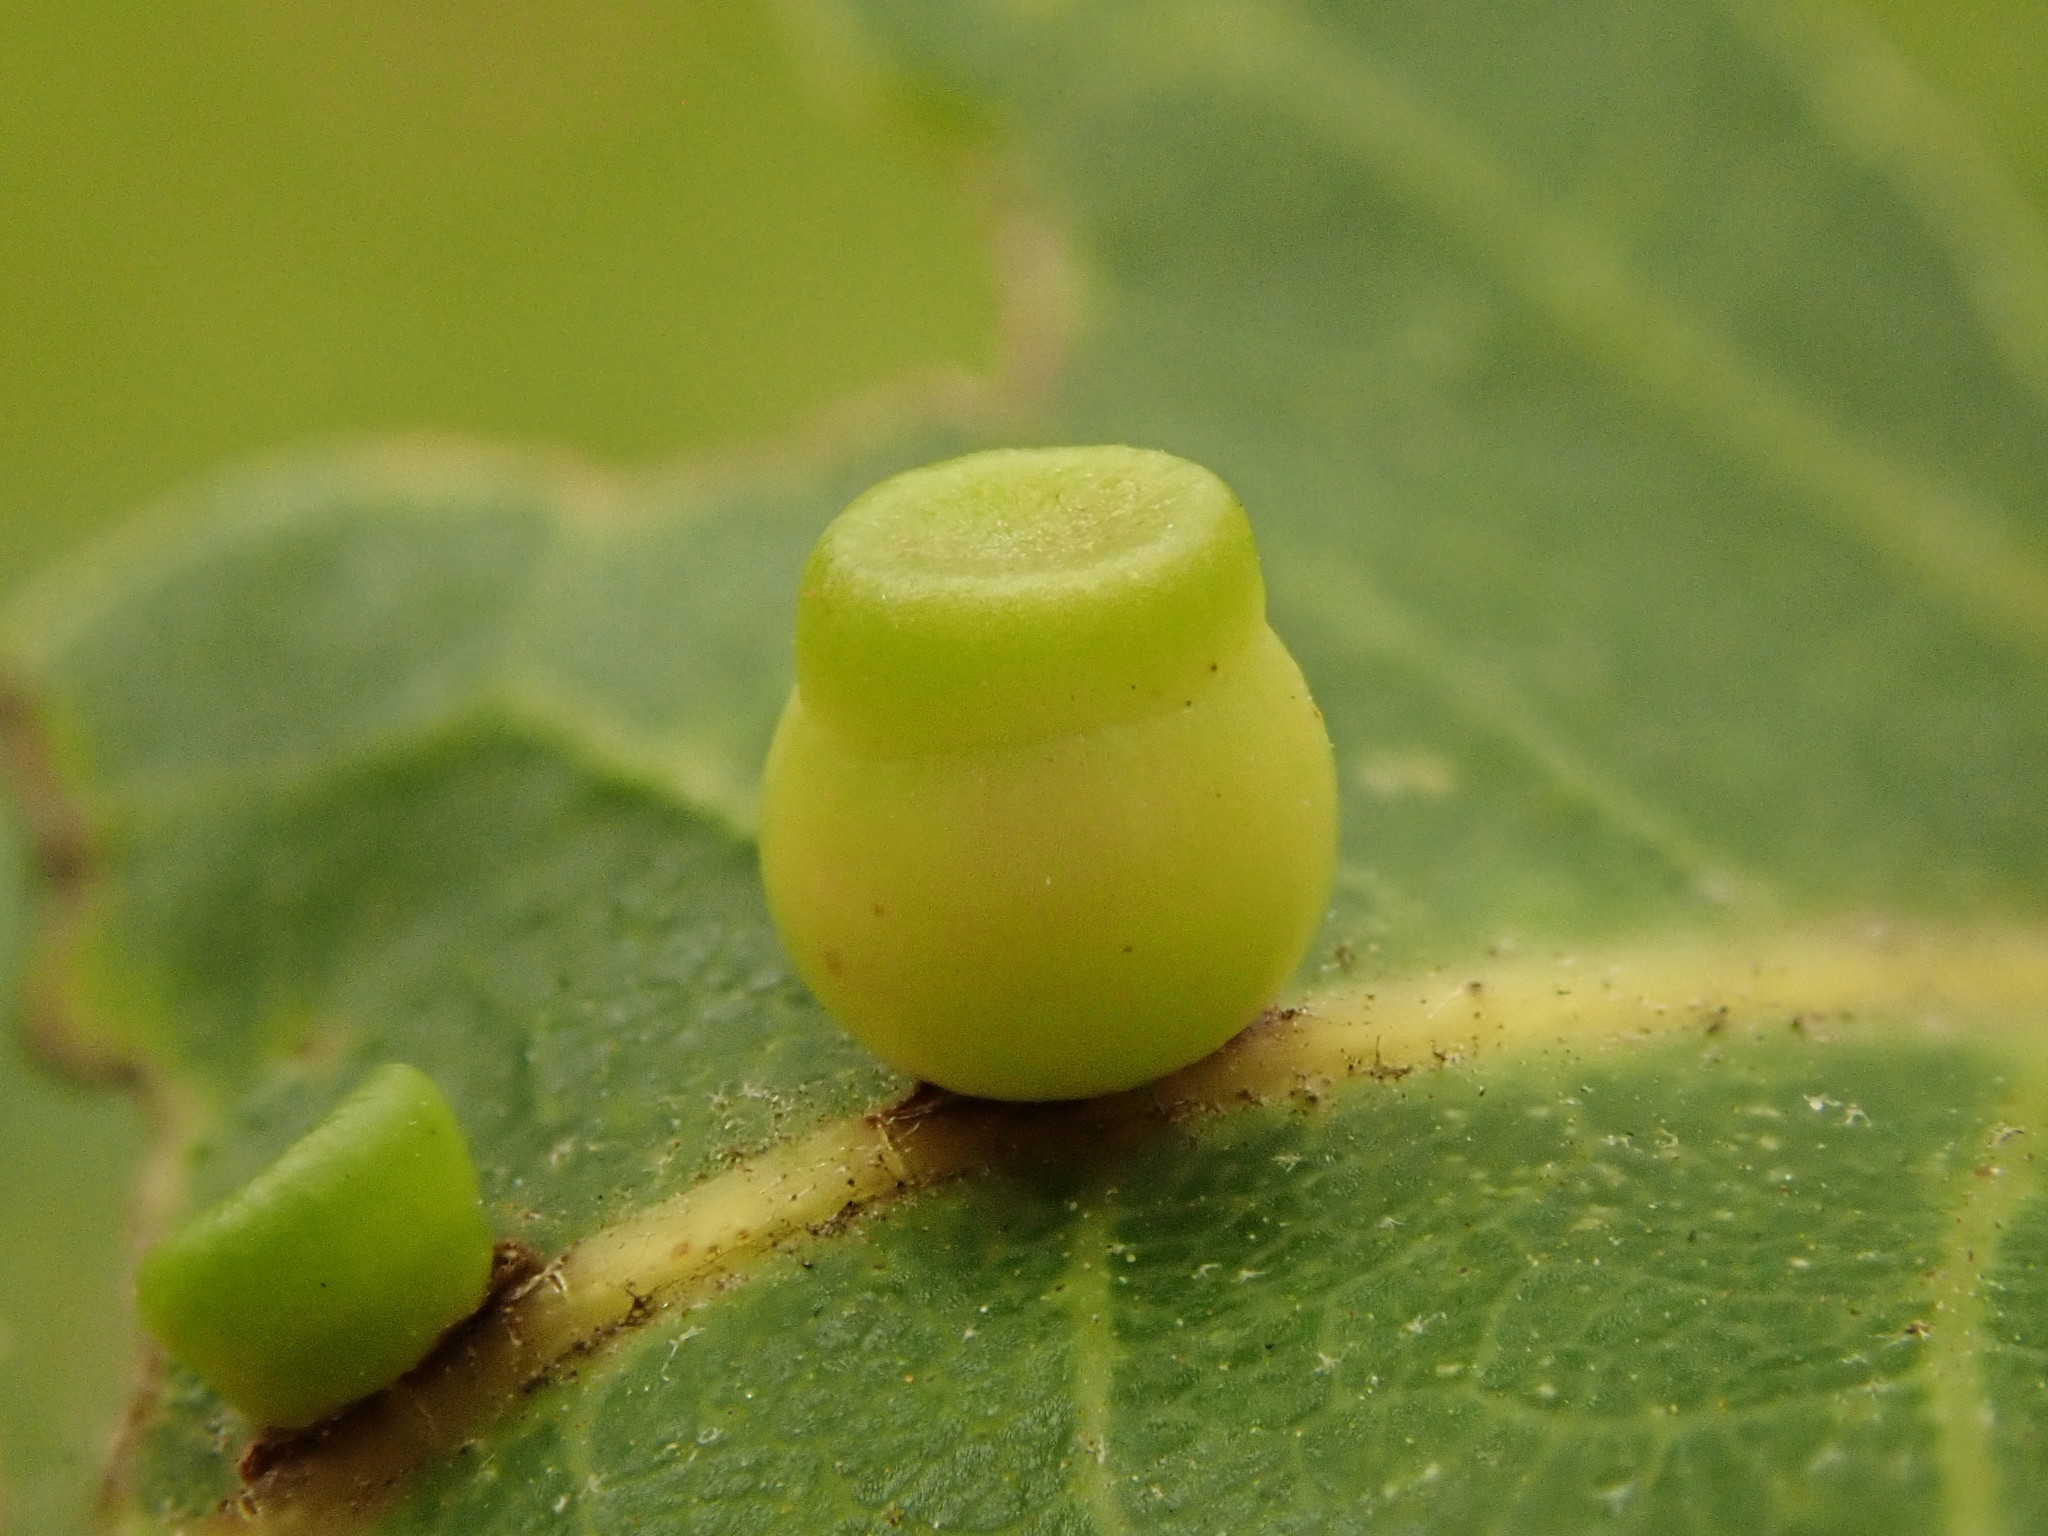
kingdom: Animalia
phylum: Arthropoda
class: Insecta
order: Hymenoptera
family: Cynipidae
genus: Kokkocynips
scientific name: Kokkocynips rileyi
